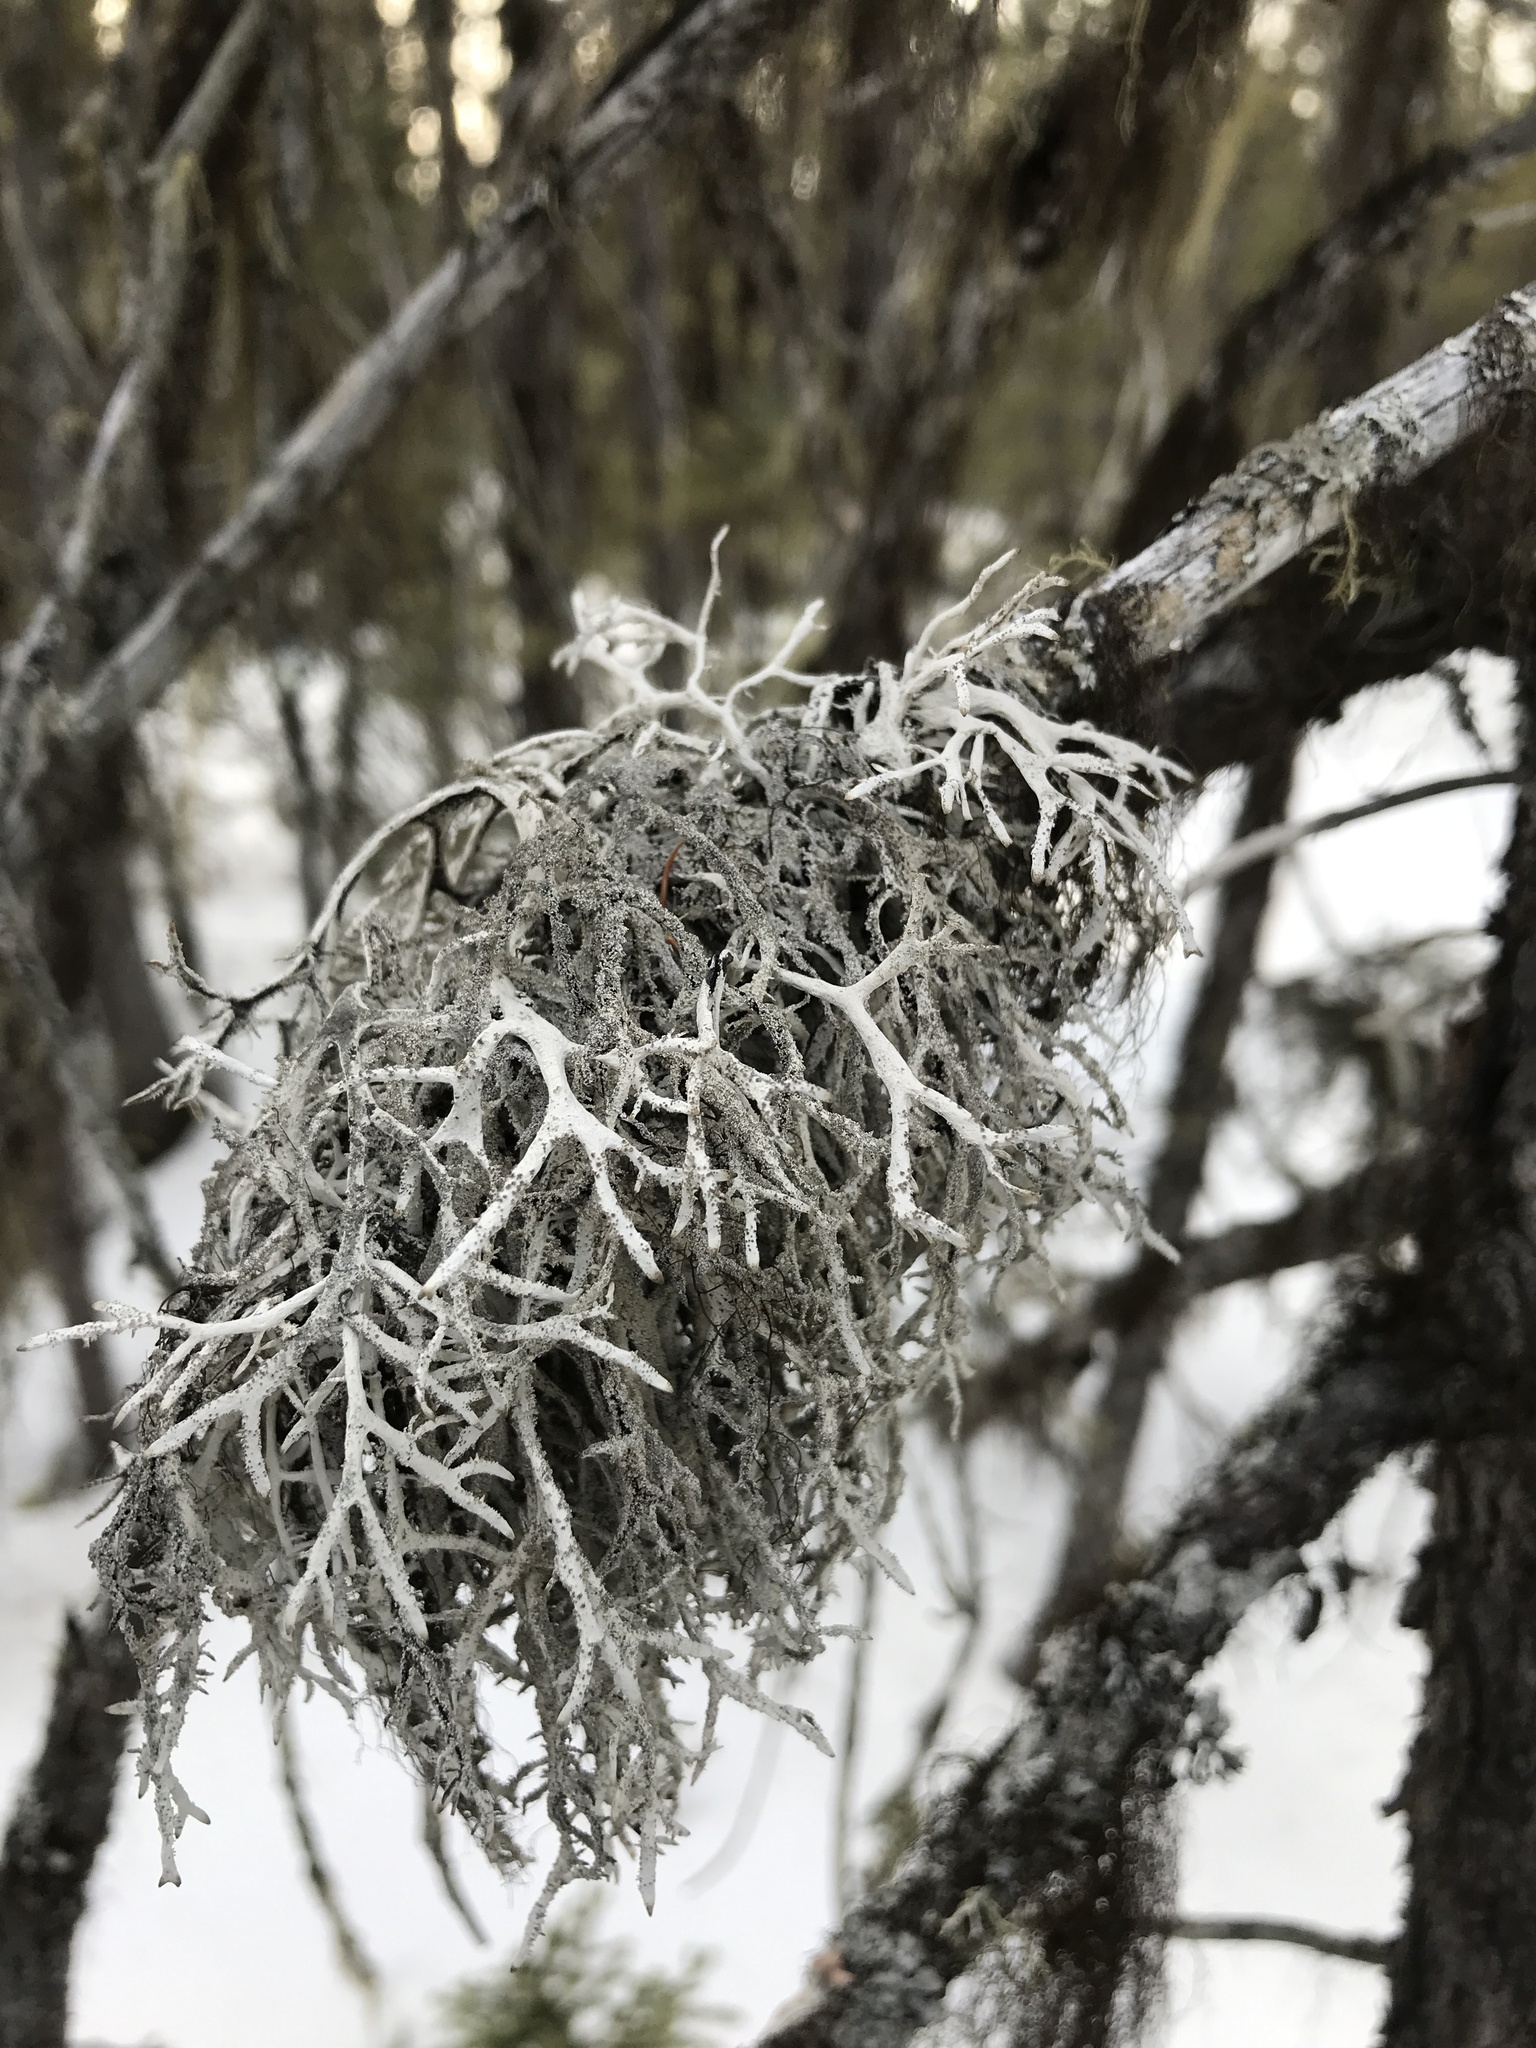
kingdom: Fungi
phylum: Ascomycota
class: Lecanoromycetes
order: Lecanorales
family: Parmeliaceae
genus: Pseudevernia
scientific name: Pseudevernia consocians
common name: Common antler lichen
